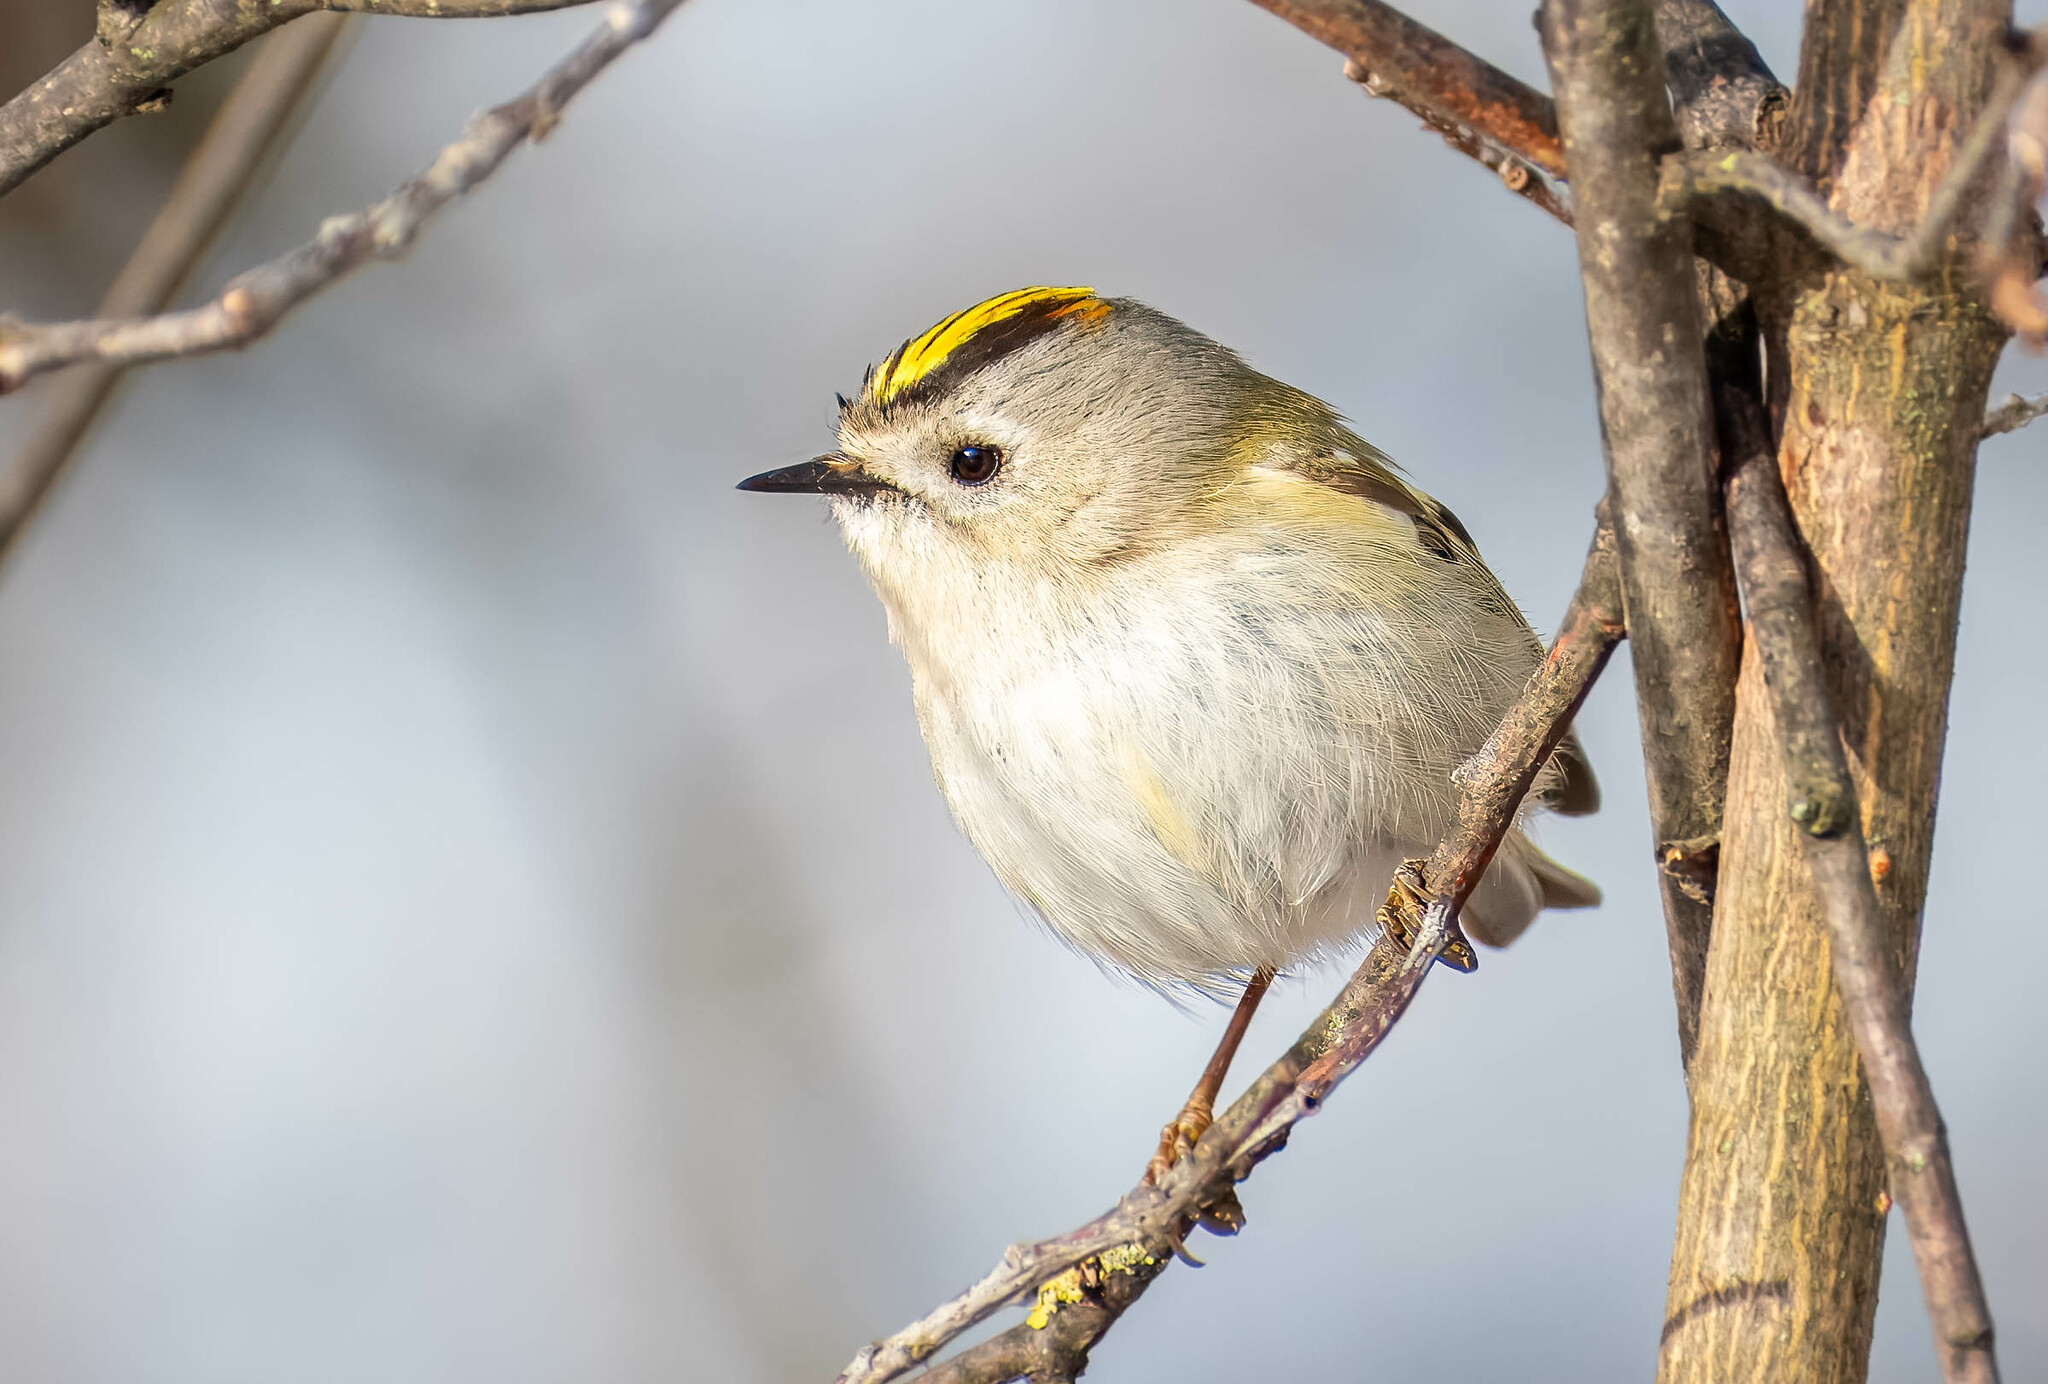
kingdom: Animalia
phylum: Chordata
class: Aves
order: Passeriformes
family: Regulidae
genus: Regulus
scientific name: Regulus regulus
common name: Goldcrest
